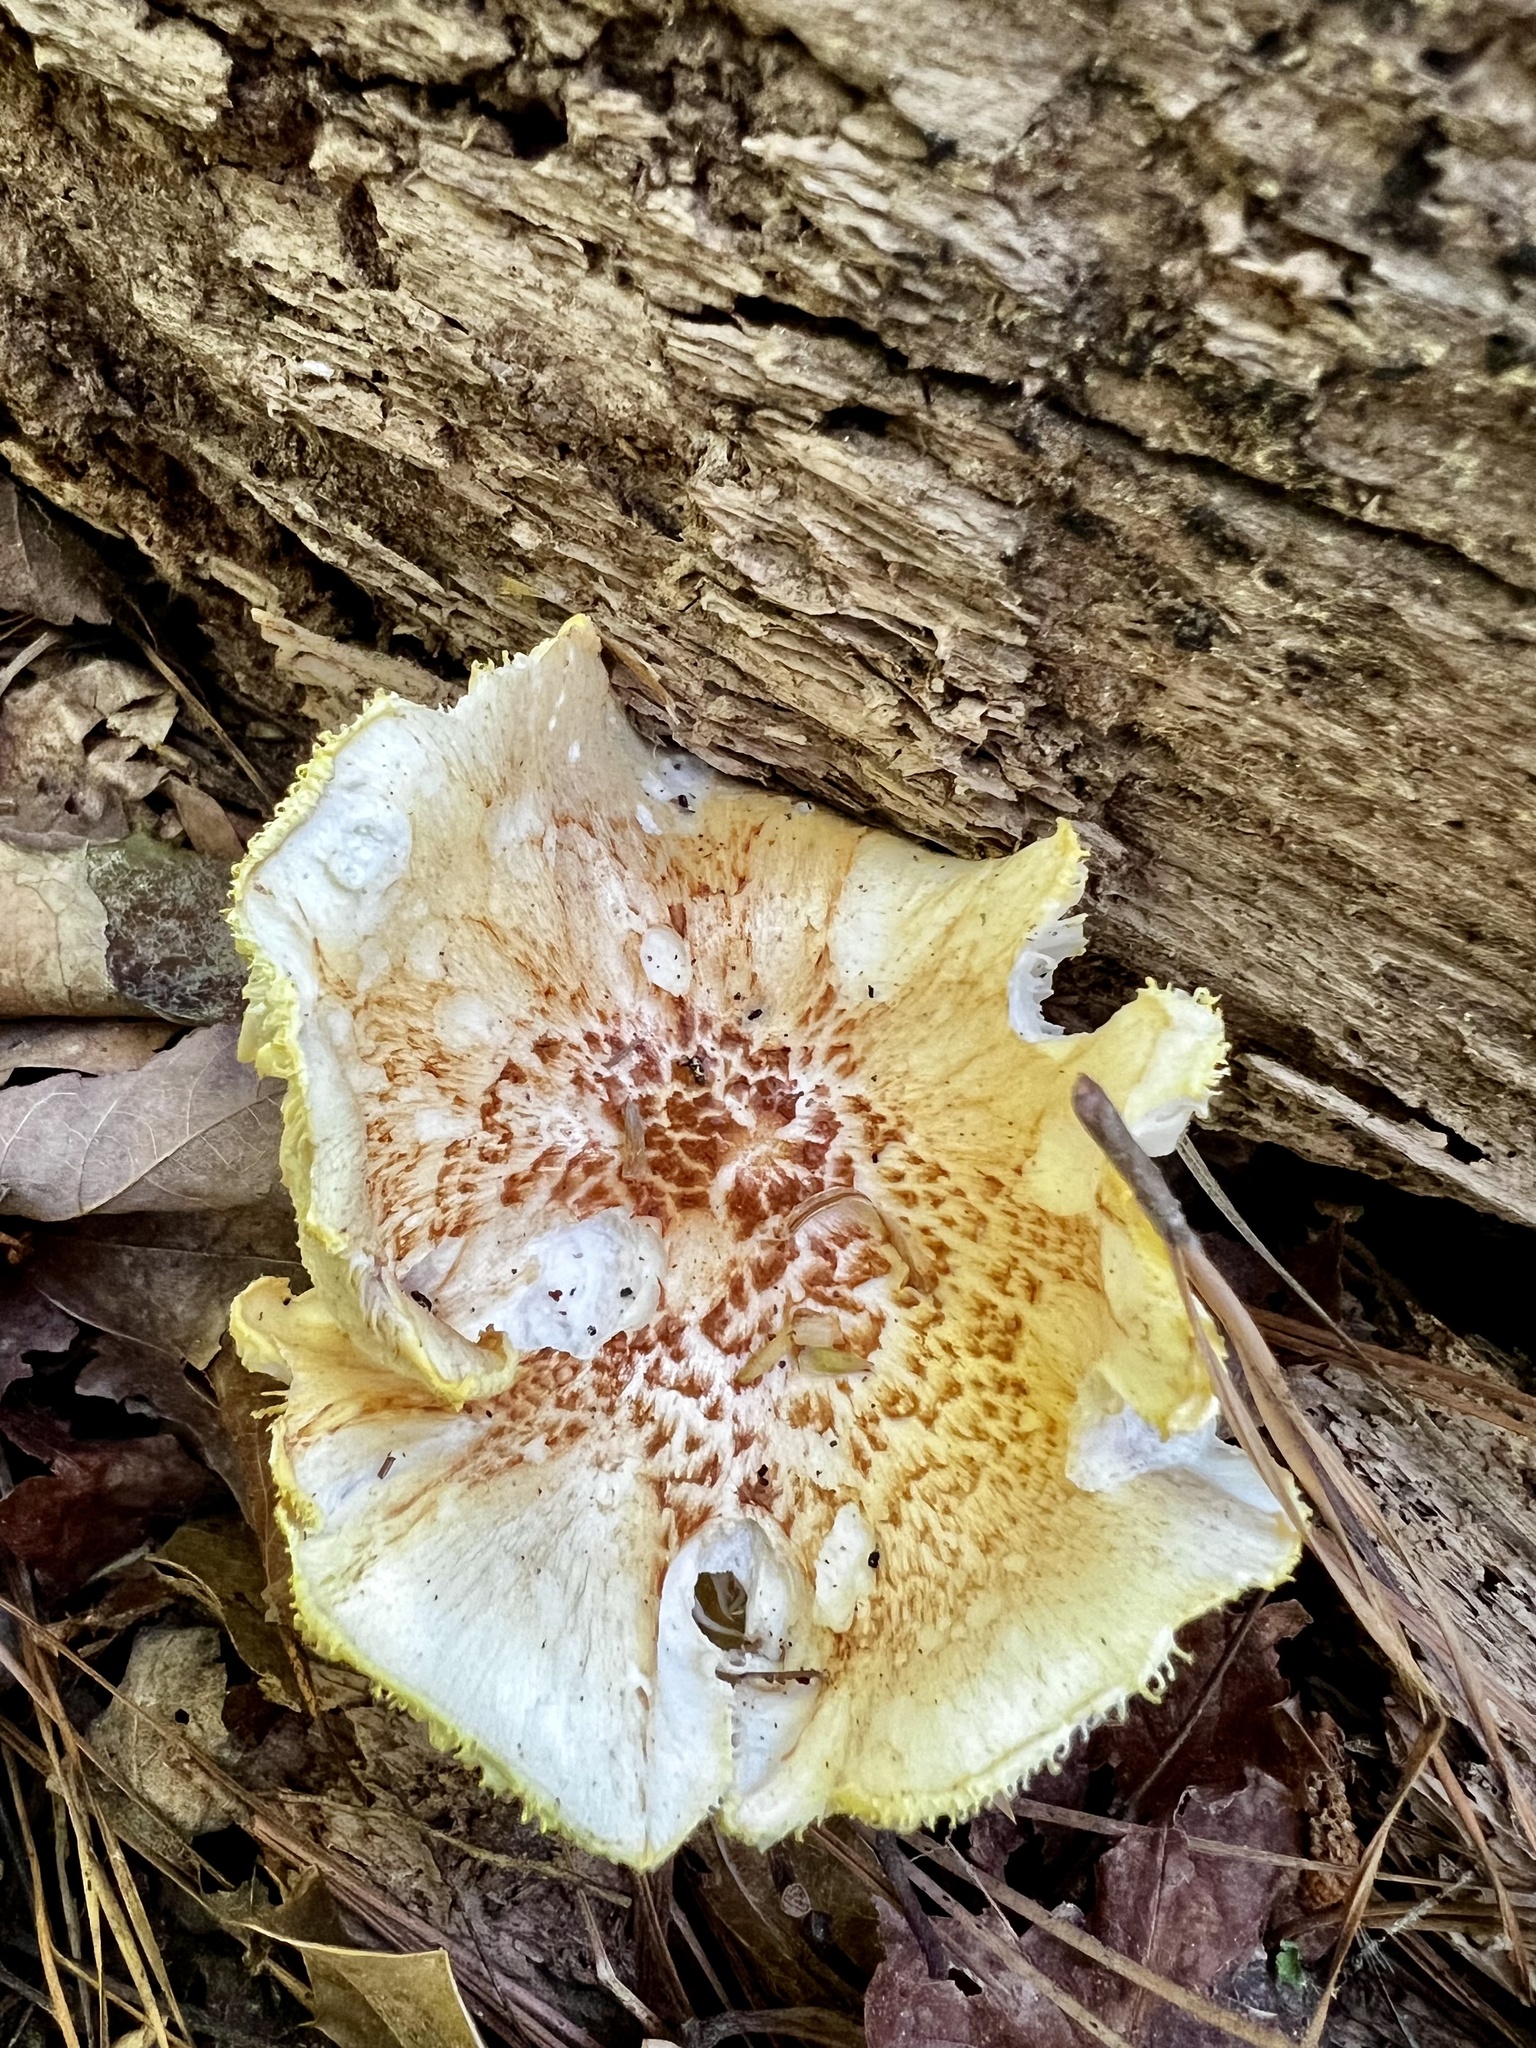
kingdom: Fungi
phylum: Basidiomycota
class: Agaricomycetes
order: Gloeophyllales
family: Gloeophyllaceae
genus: Neolentinus
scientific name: Neolentinus lepideus
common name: Scaly sawgill
